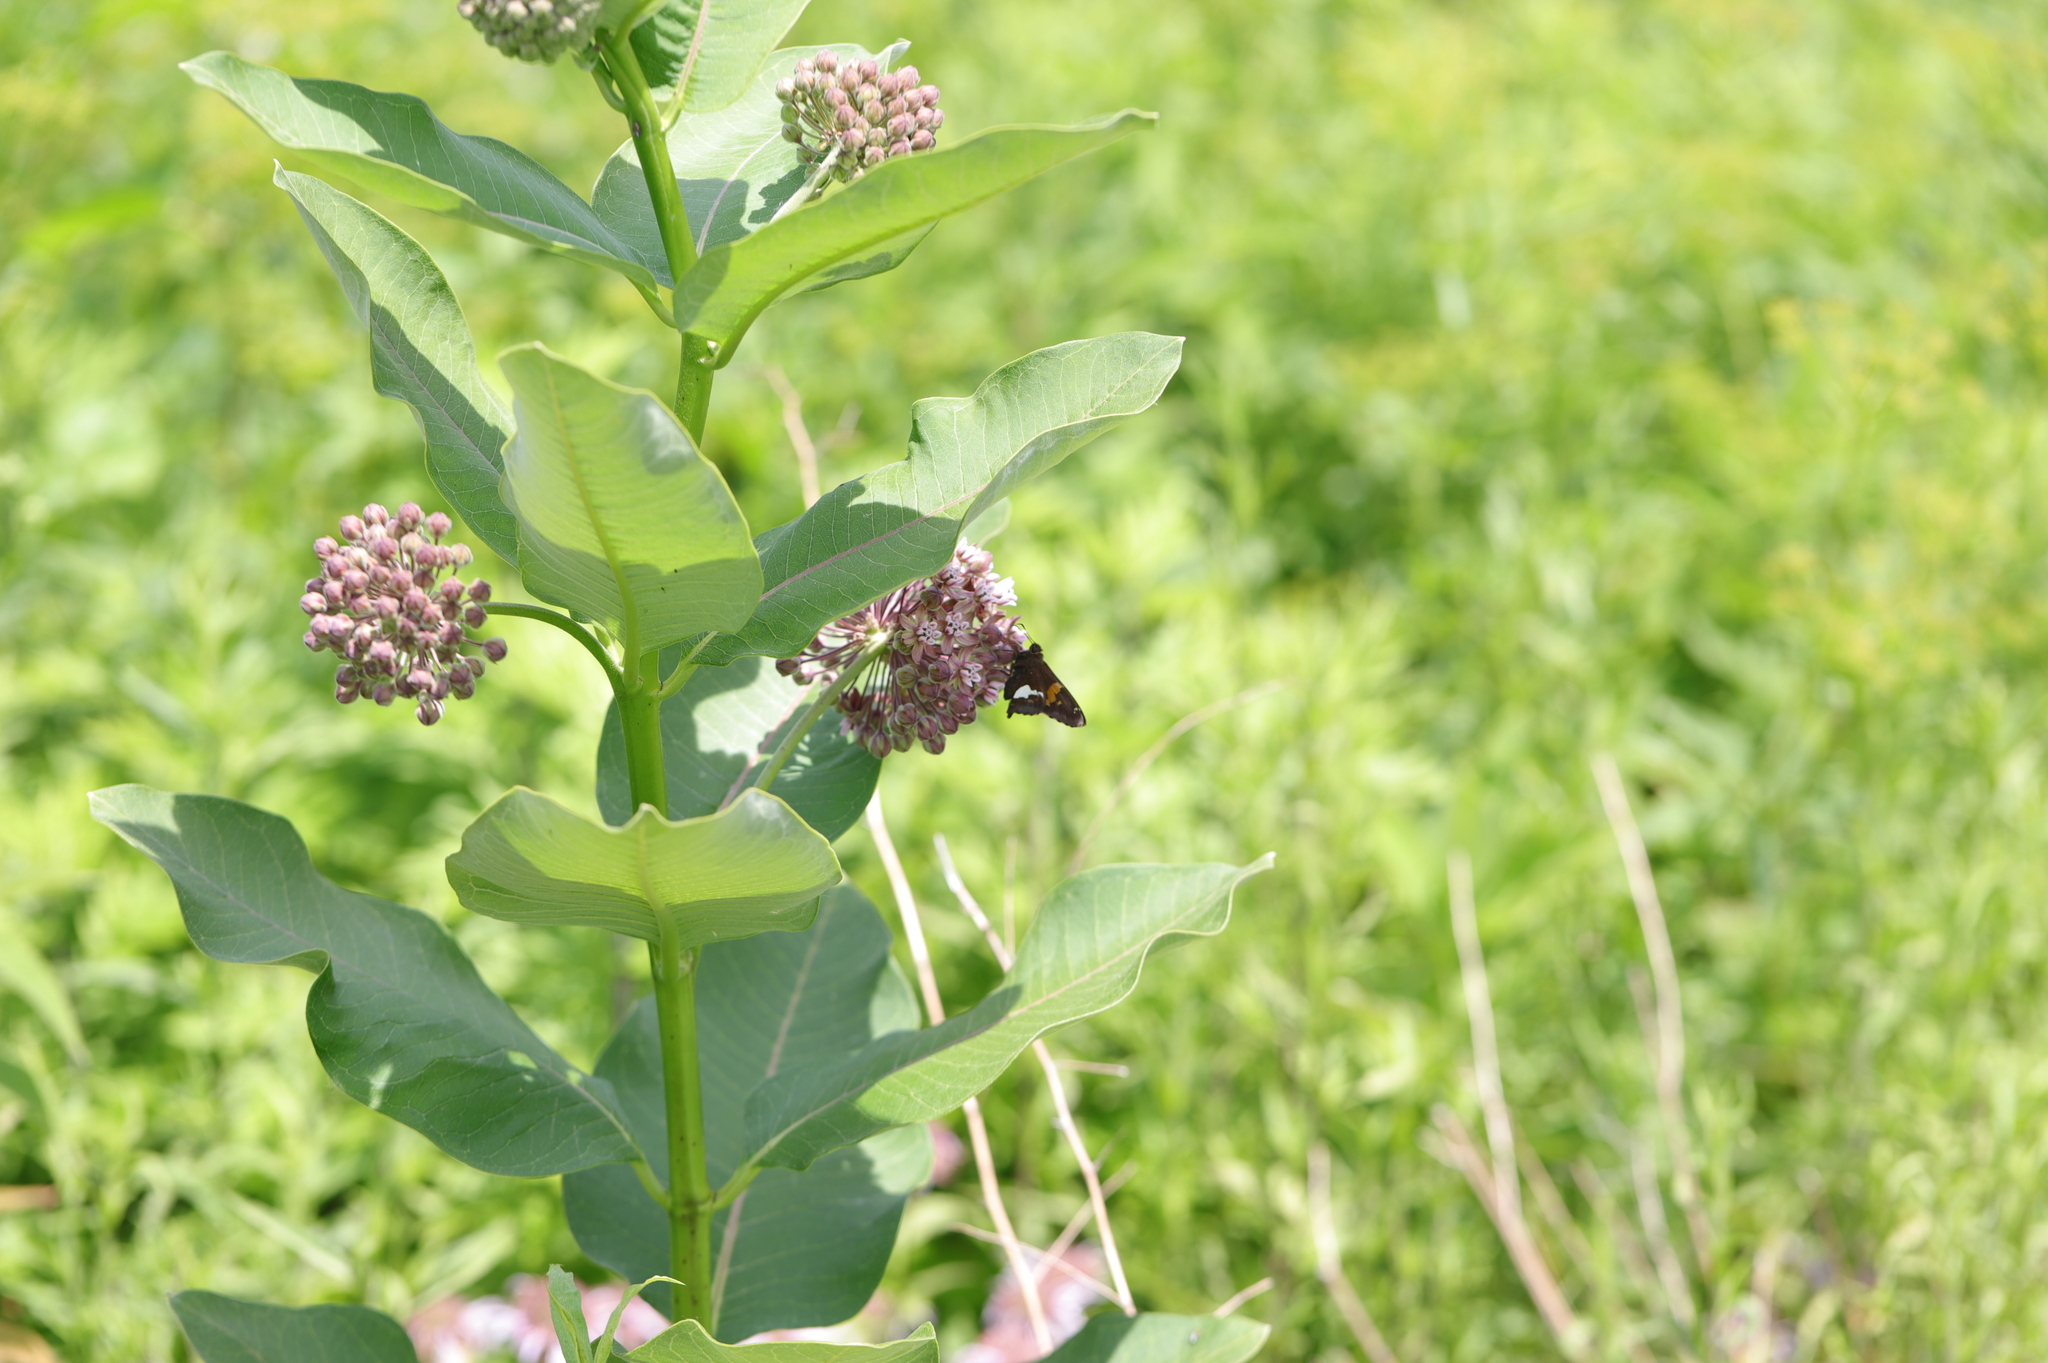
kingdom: Animalia
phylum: Arthropoda
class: Insecta
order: Lepidoptera
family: Hesperiidae
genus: Epargyreus
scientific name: Epargyreus clarus
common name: Silver-spotted skipper
